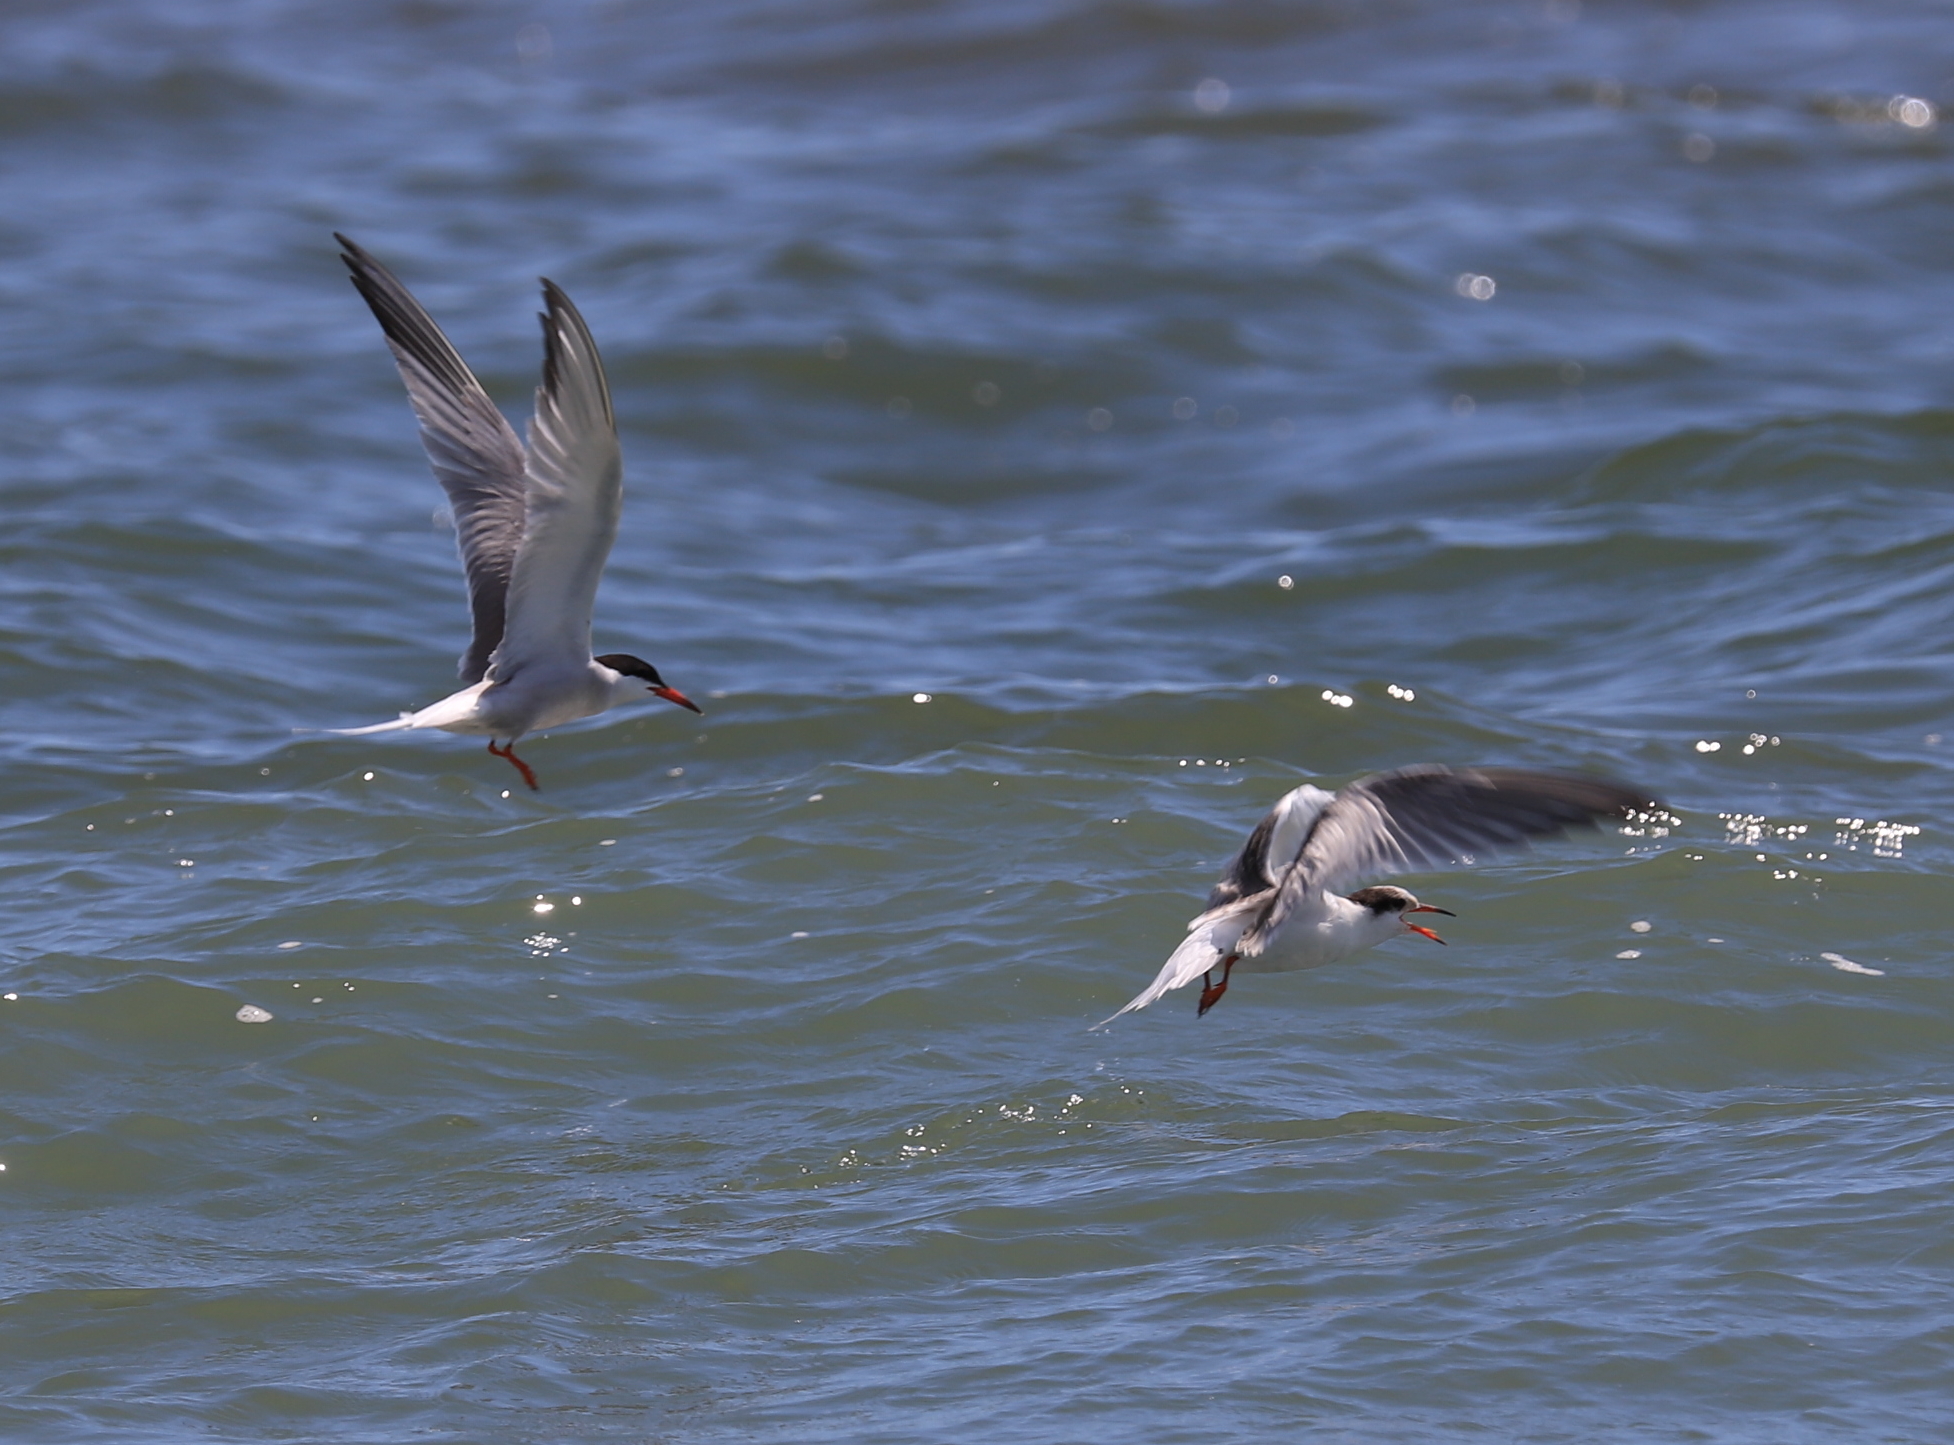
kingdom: Animalia
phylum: Chordata
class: Aves
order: Charadriiformes
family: Laridae
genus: Sterna
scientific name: Sterna hirundo
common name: Common tern
